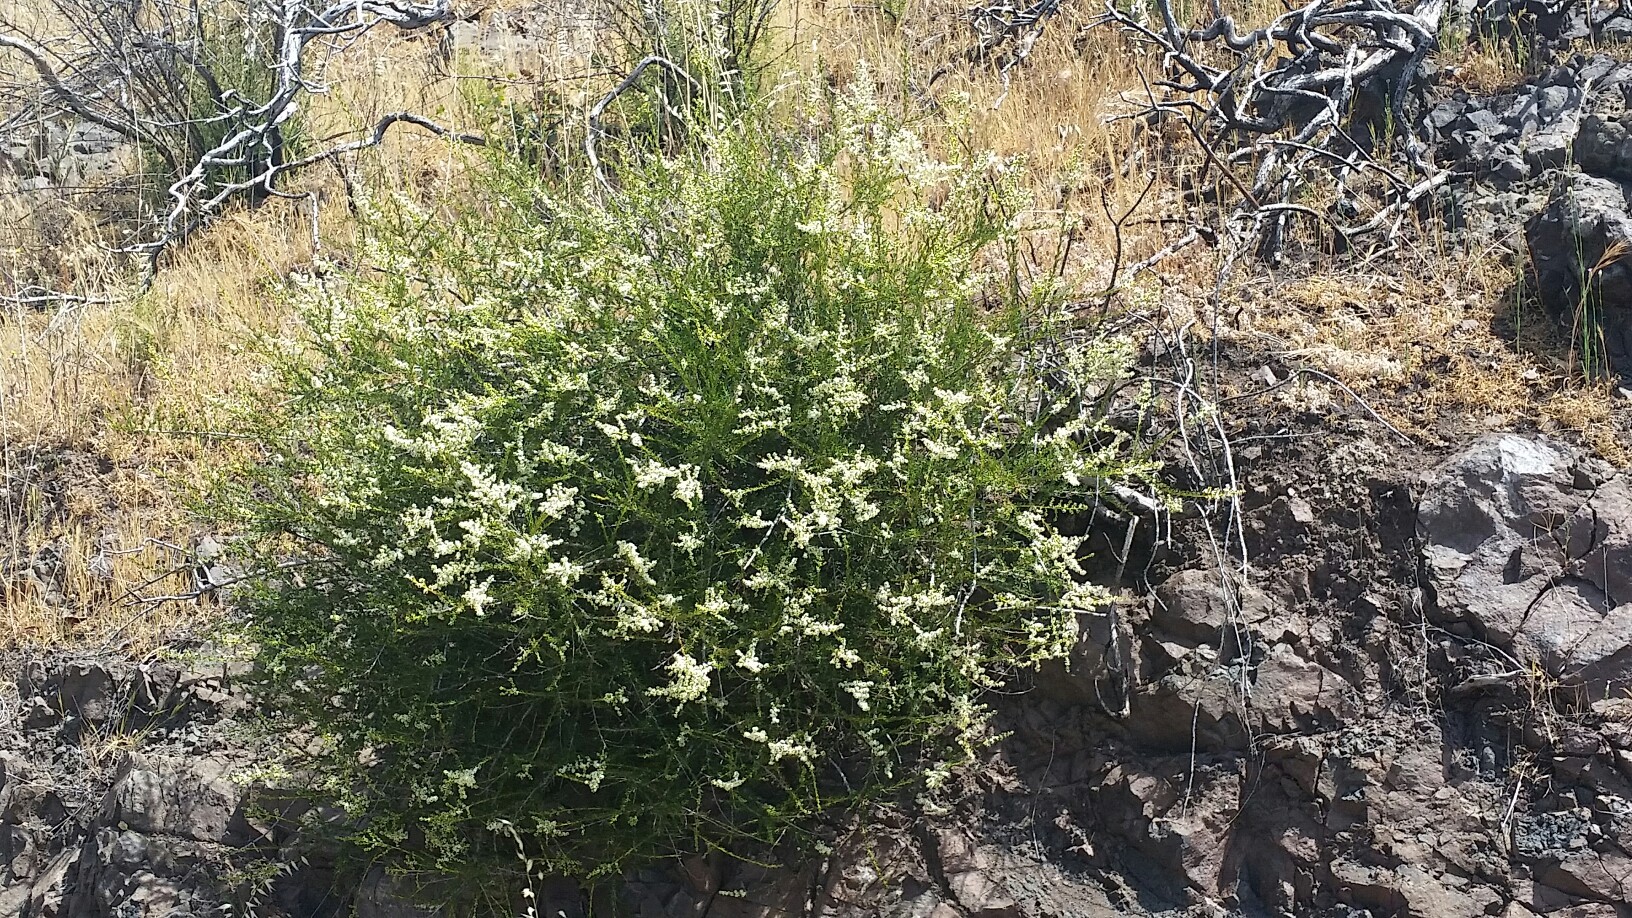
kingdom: Plantae
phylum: Tracheophyta
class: Magnoliopsida
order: Rosales
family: Rosaceae
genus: Adenostoma
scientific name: Adenostoma fasciculatum
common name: Chamise
